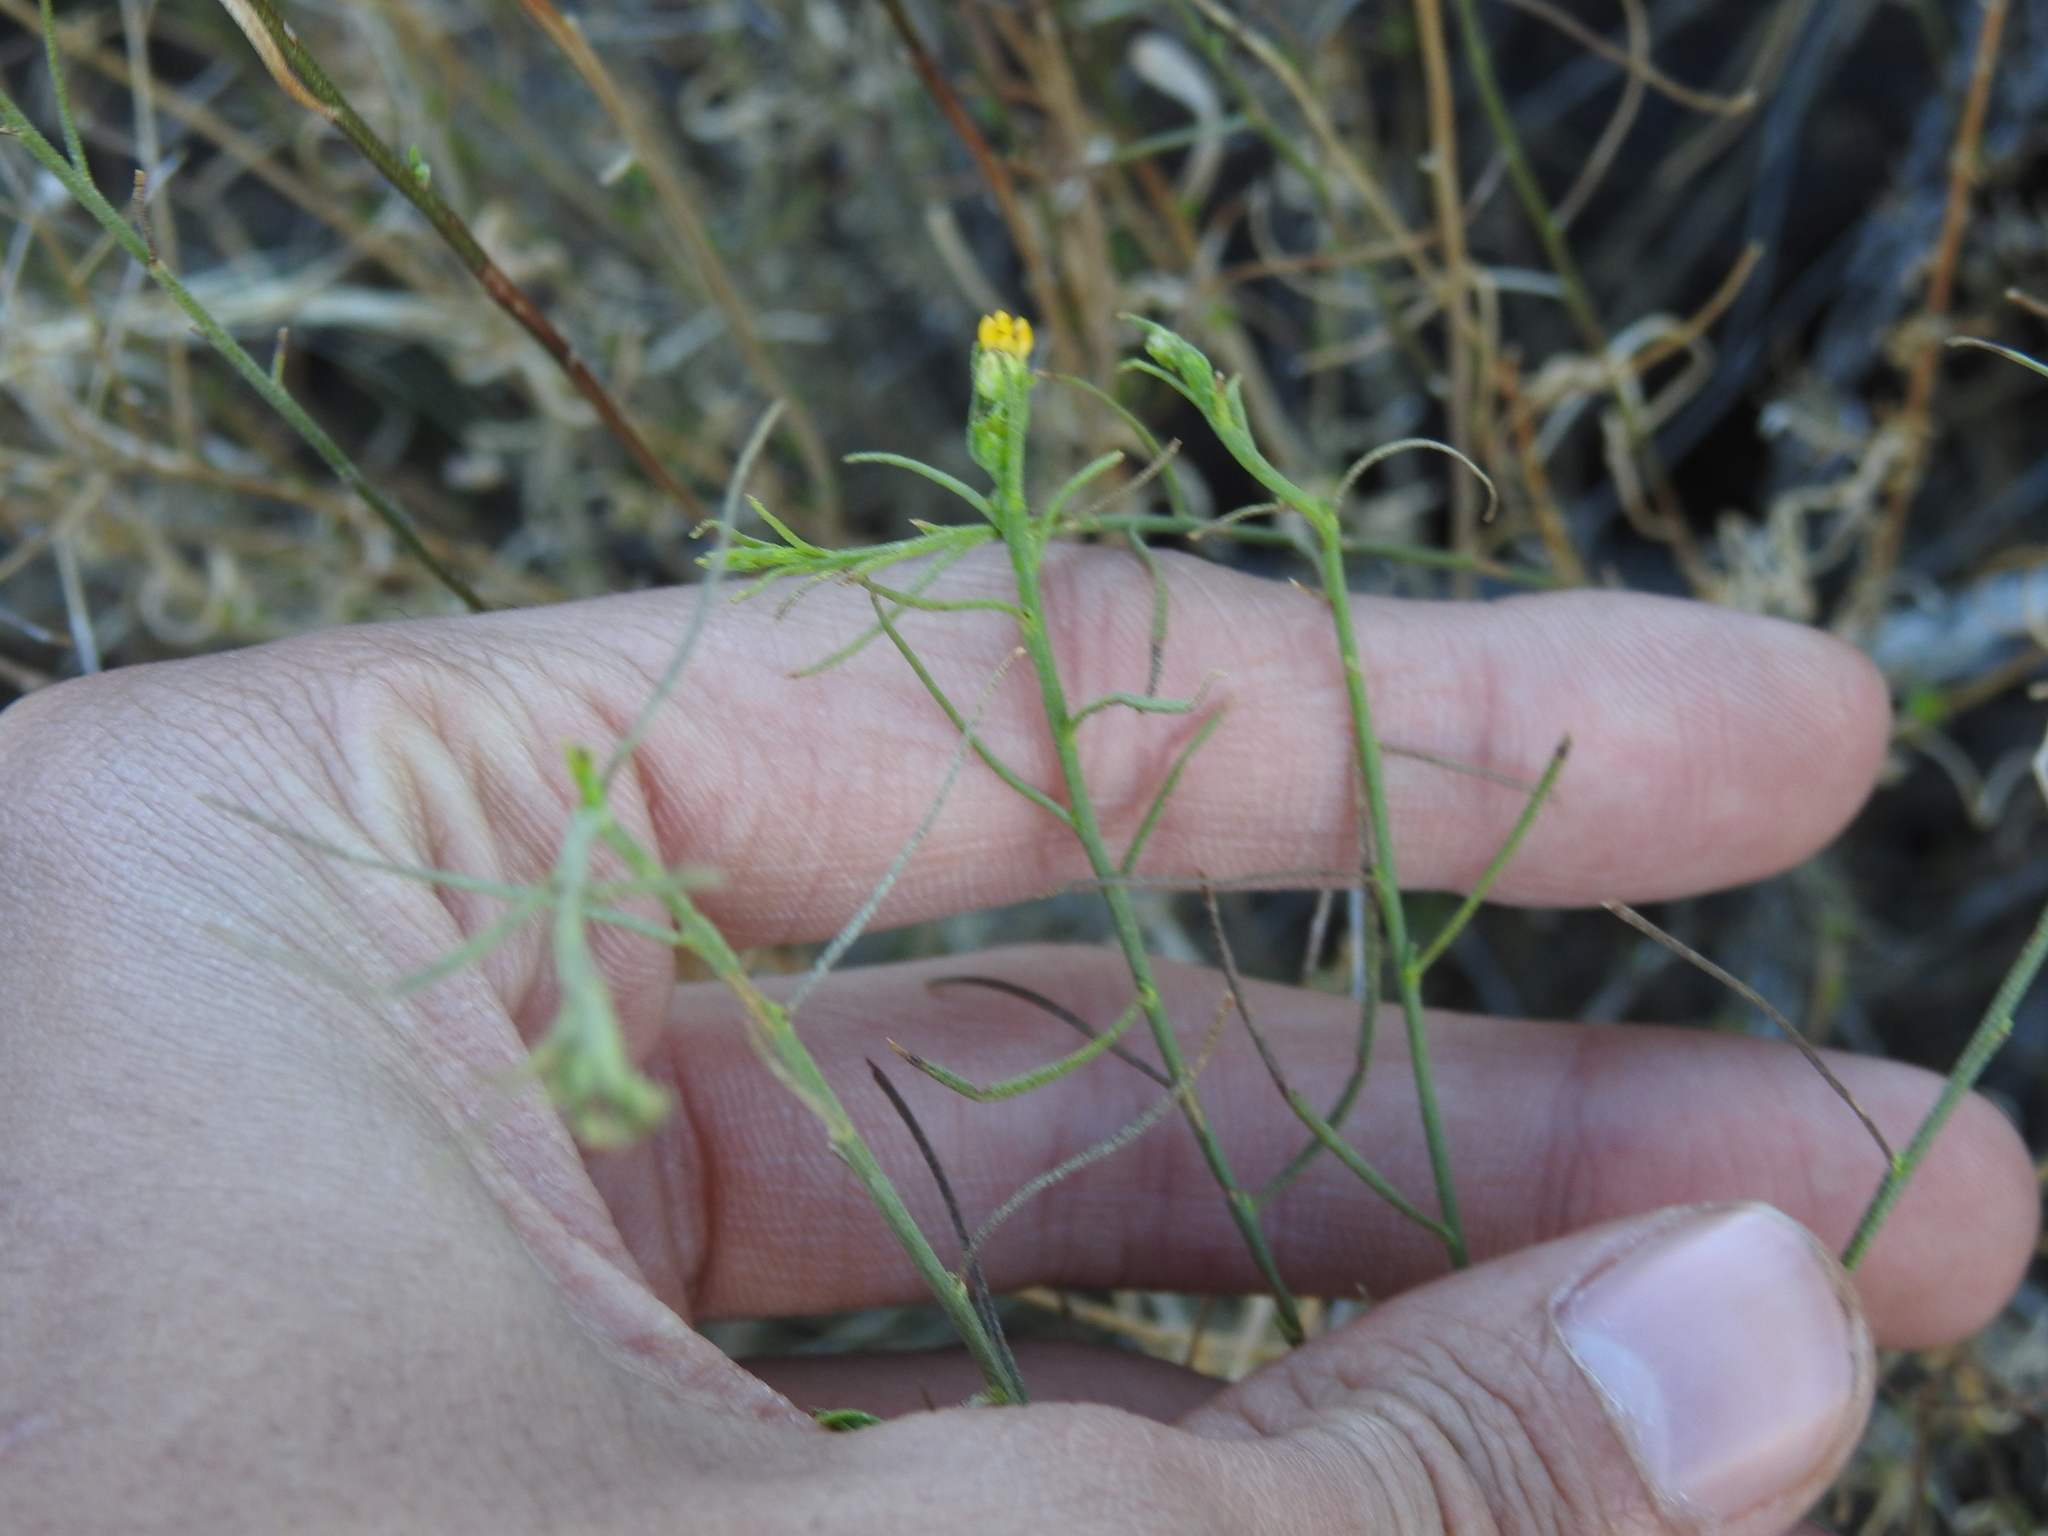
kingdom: Plantae
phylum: Tracheophyta
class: Magnoliopsida
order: Asterales
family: Asteraceae
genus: Gutierrezia
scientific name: Gutierrezia sarothrae
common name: Broom snakeweed
